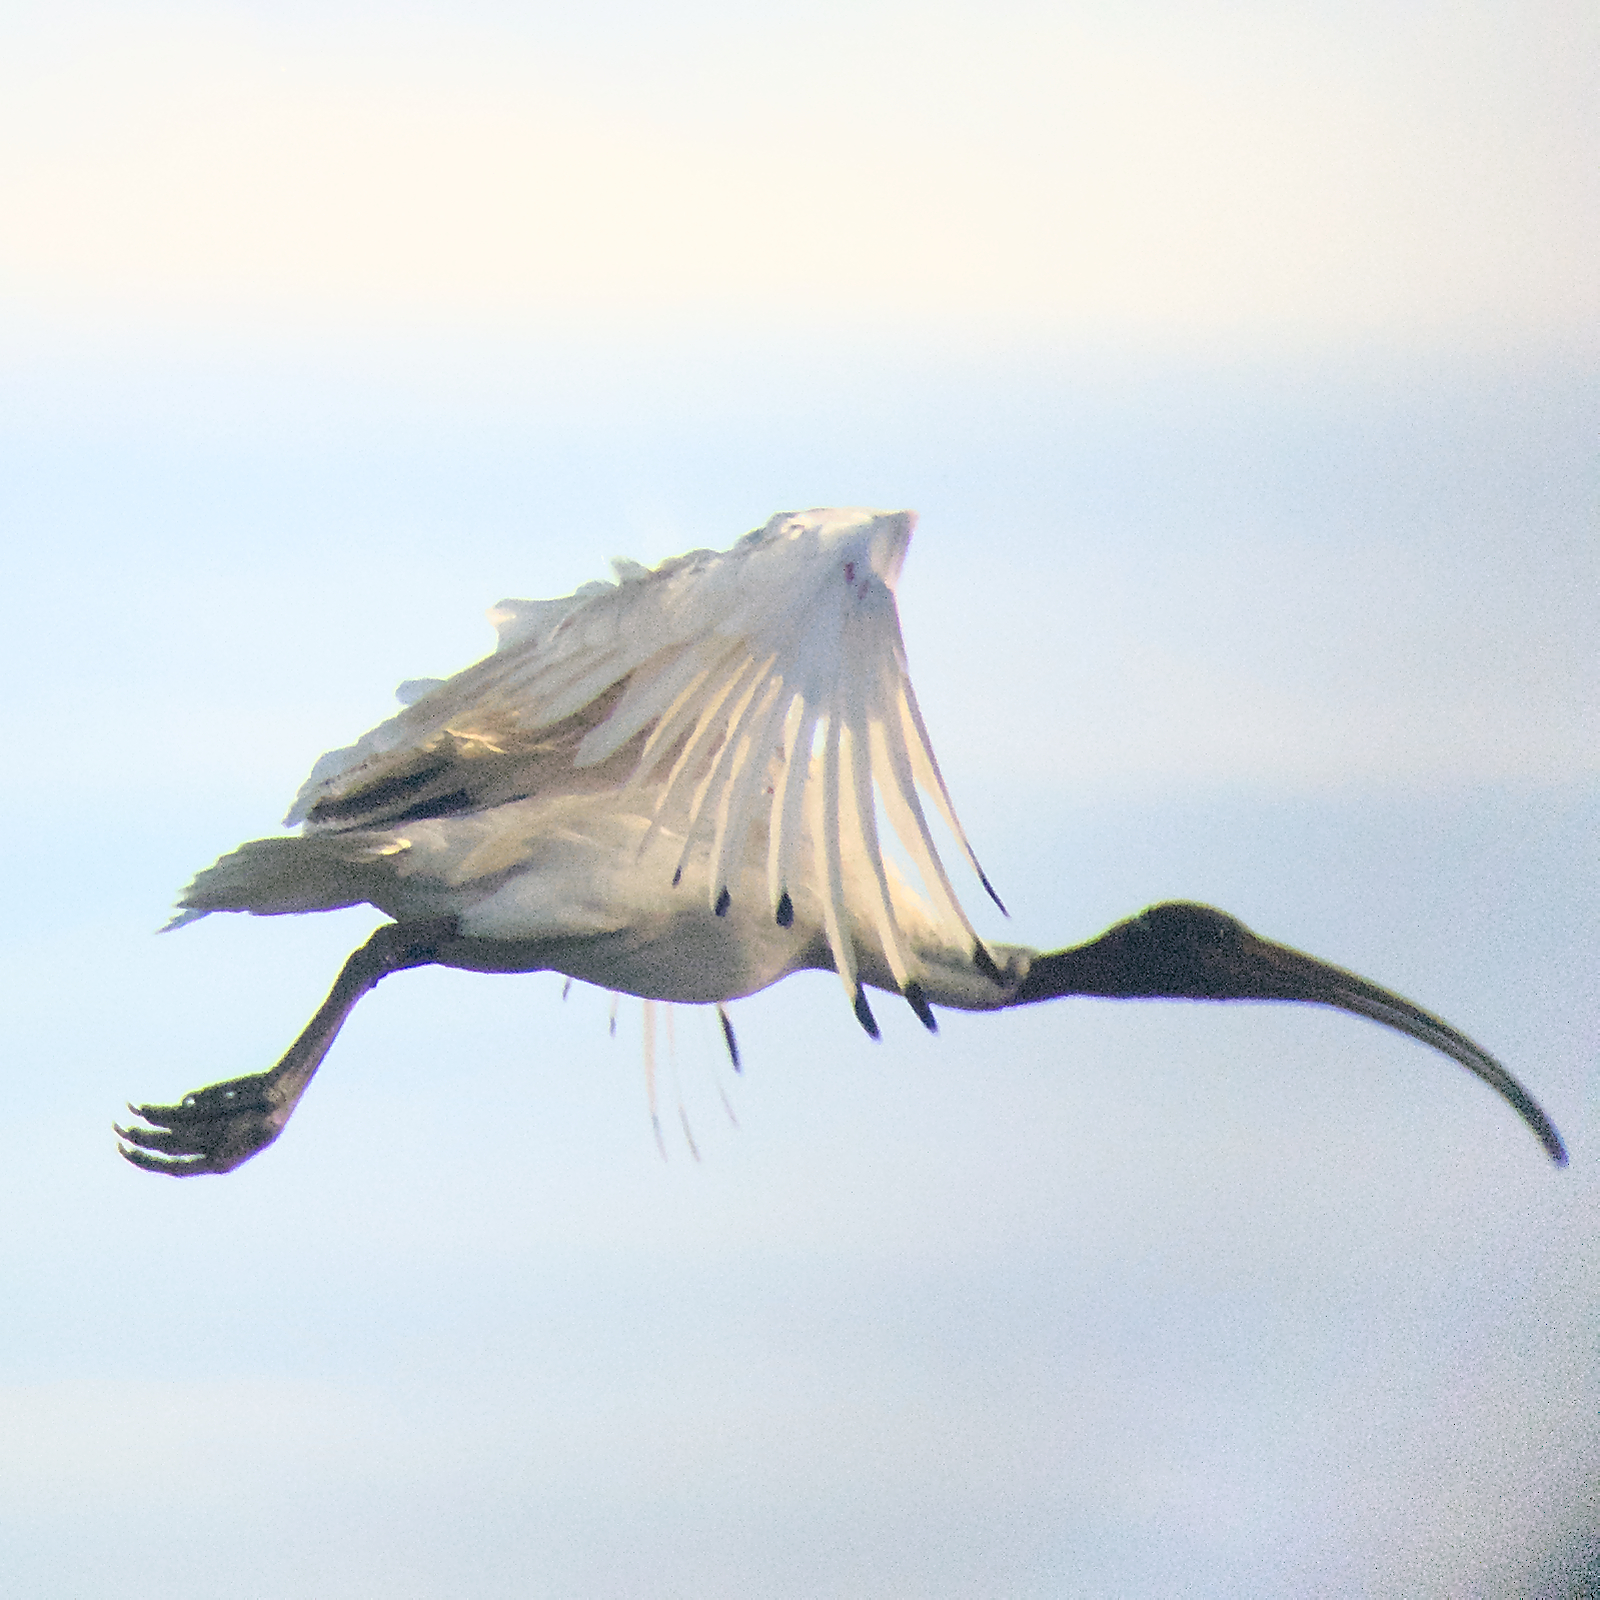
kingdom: Animalia
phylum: Chordata
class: Aves
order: Pelecaniformes
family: Threskiornithidae
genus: Threskiornis
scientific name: Threskiornis molucca
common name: Australian white ibis
